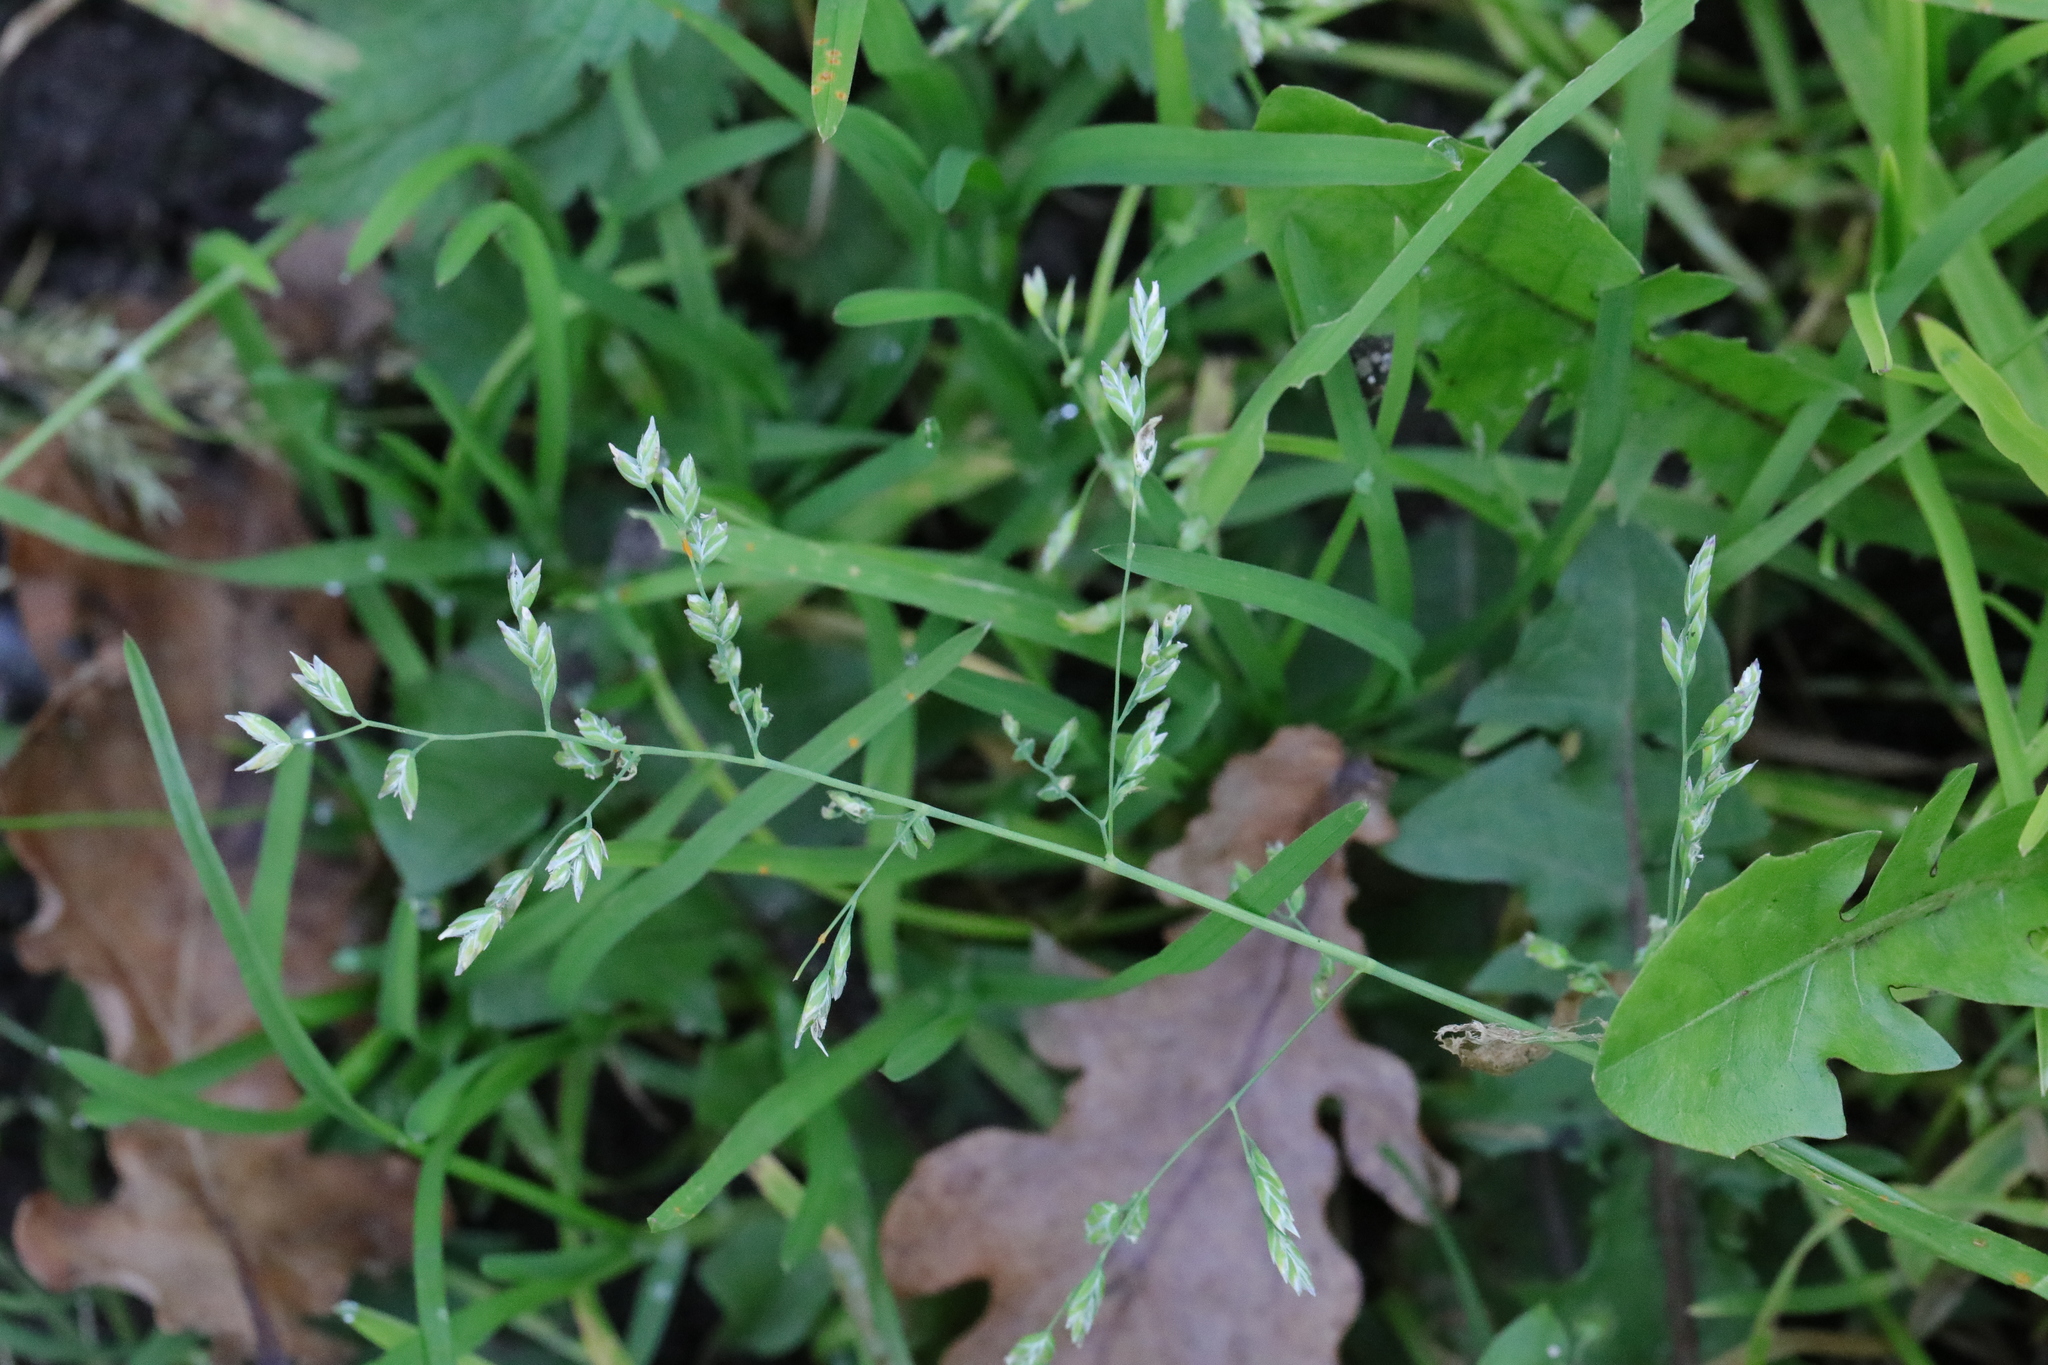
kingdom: Plantae
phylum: Tracheophyta
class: Liliopsida
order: Poales
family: Poaceae
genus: Poa
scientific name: Poa annua
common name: Annual bluegrass
